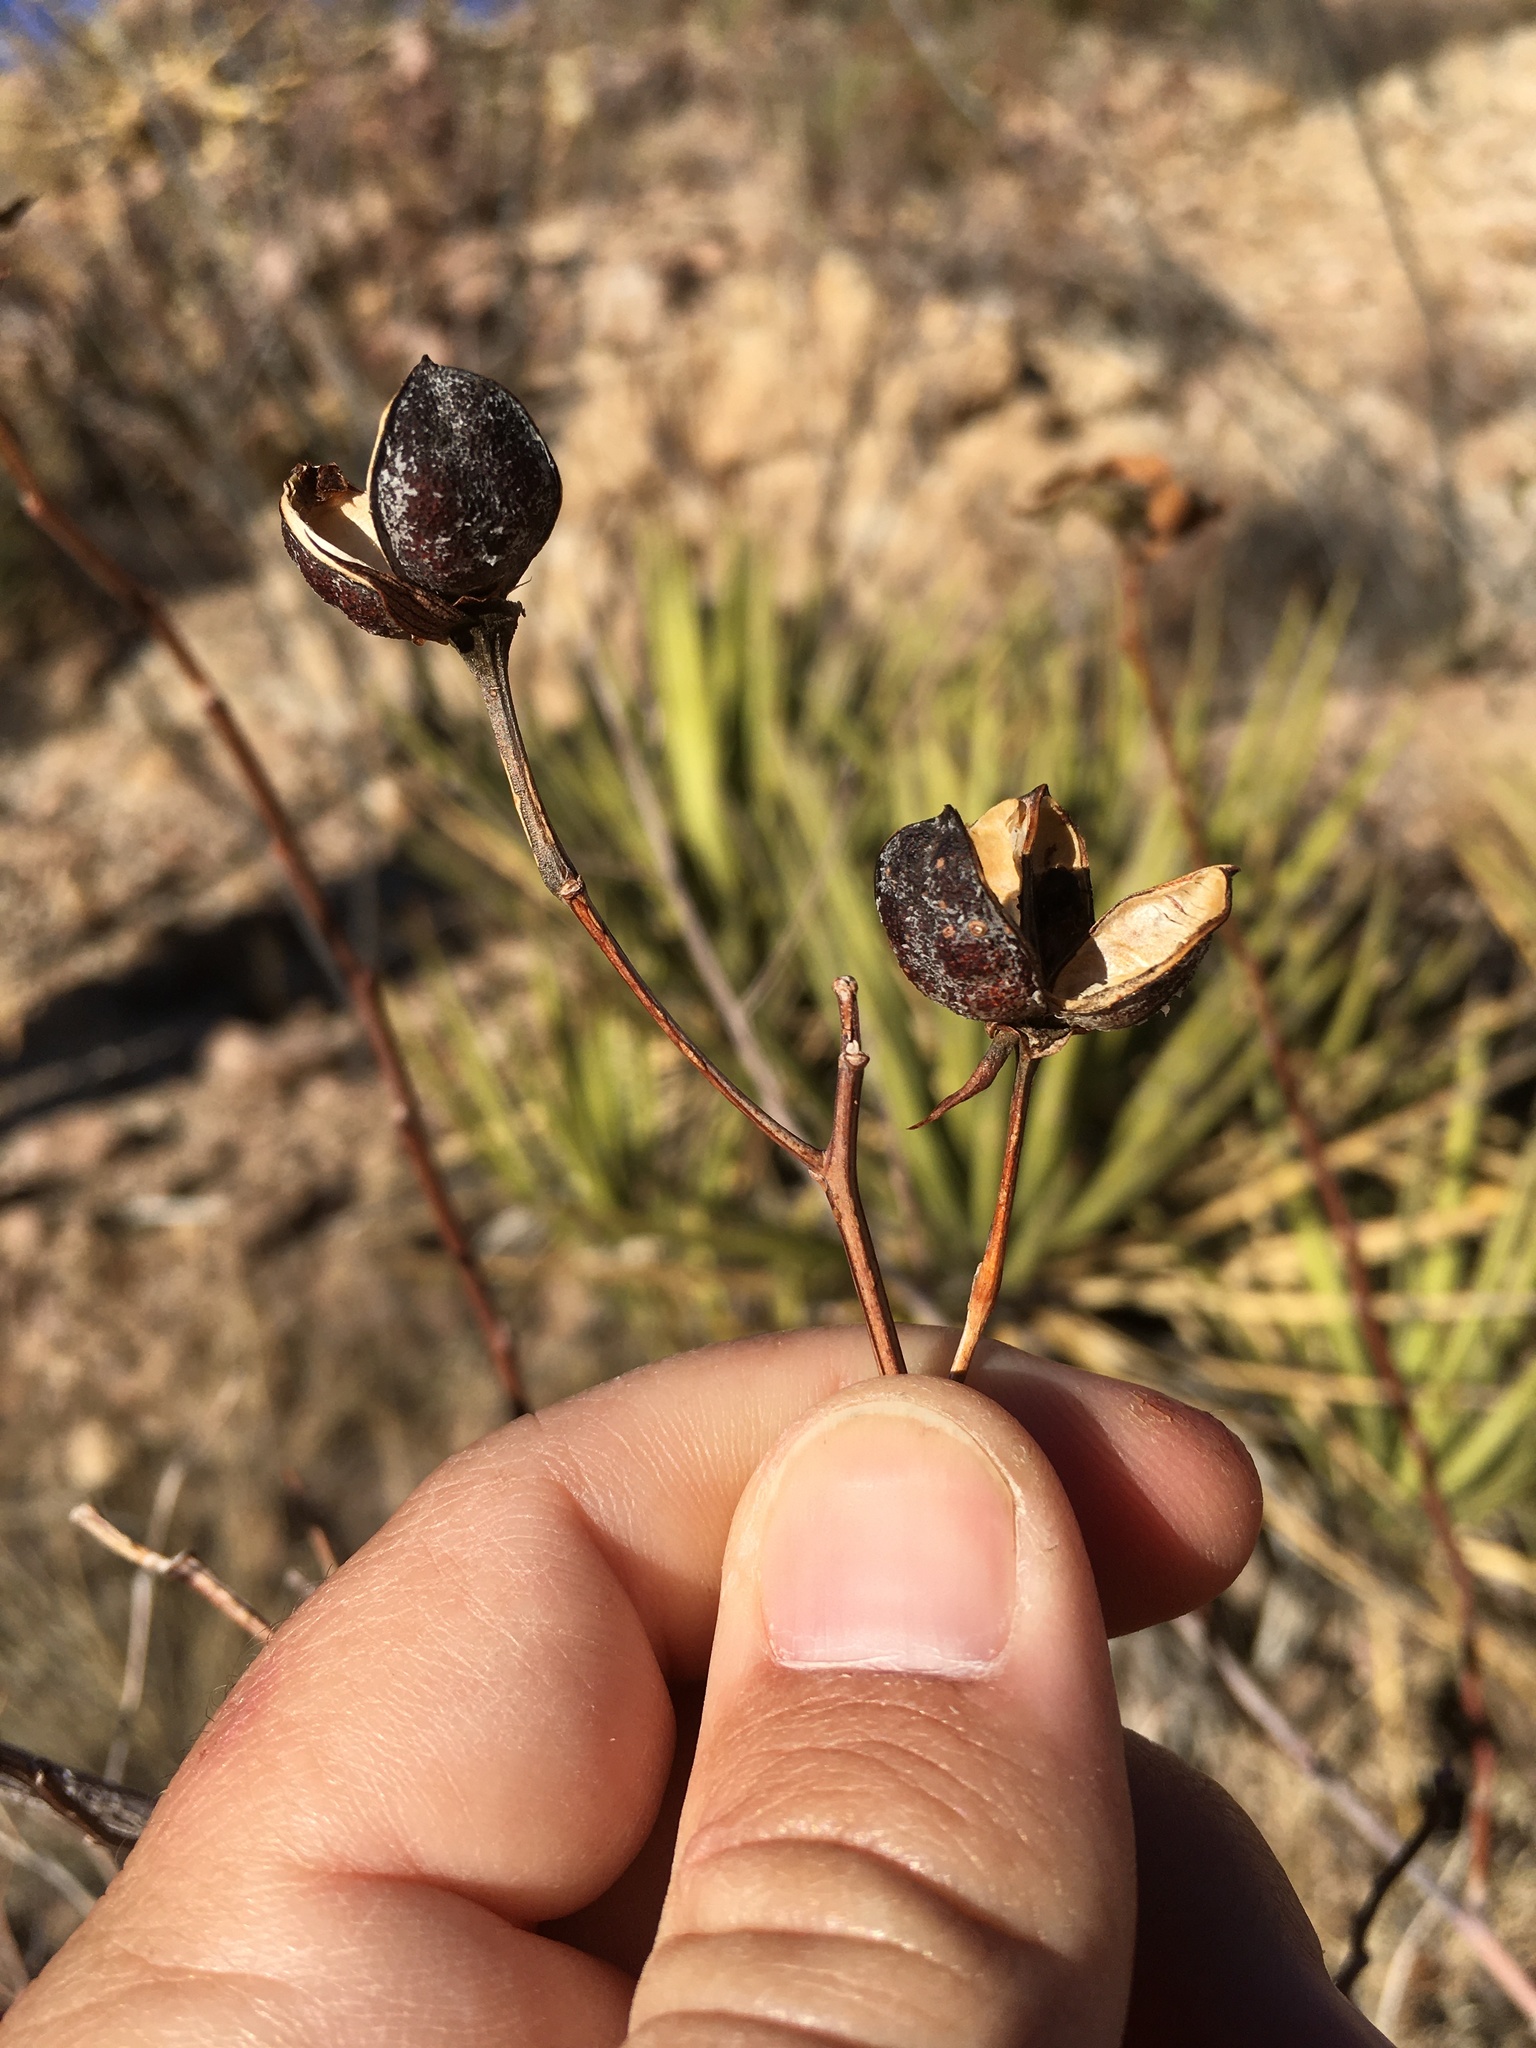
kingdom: Plantae
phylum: Tracheophyta
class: Magnoliopsida
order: Malvales
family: Malvaceae
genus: Gossypium
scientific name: Gossypium thurberi
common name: Desert cotton
